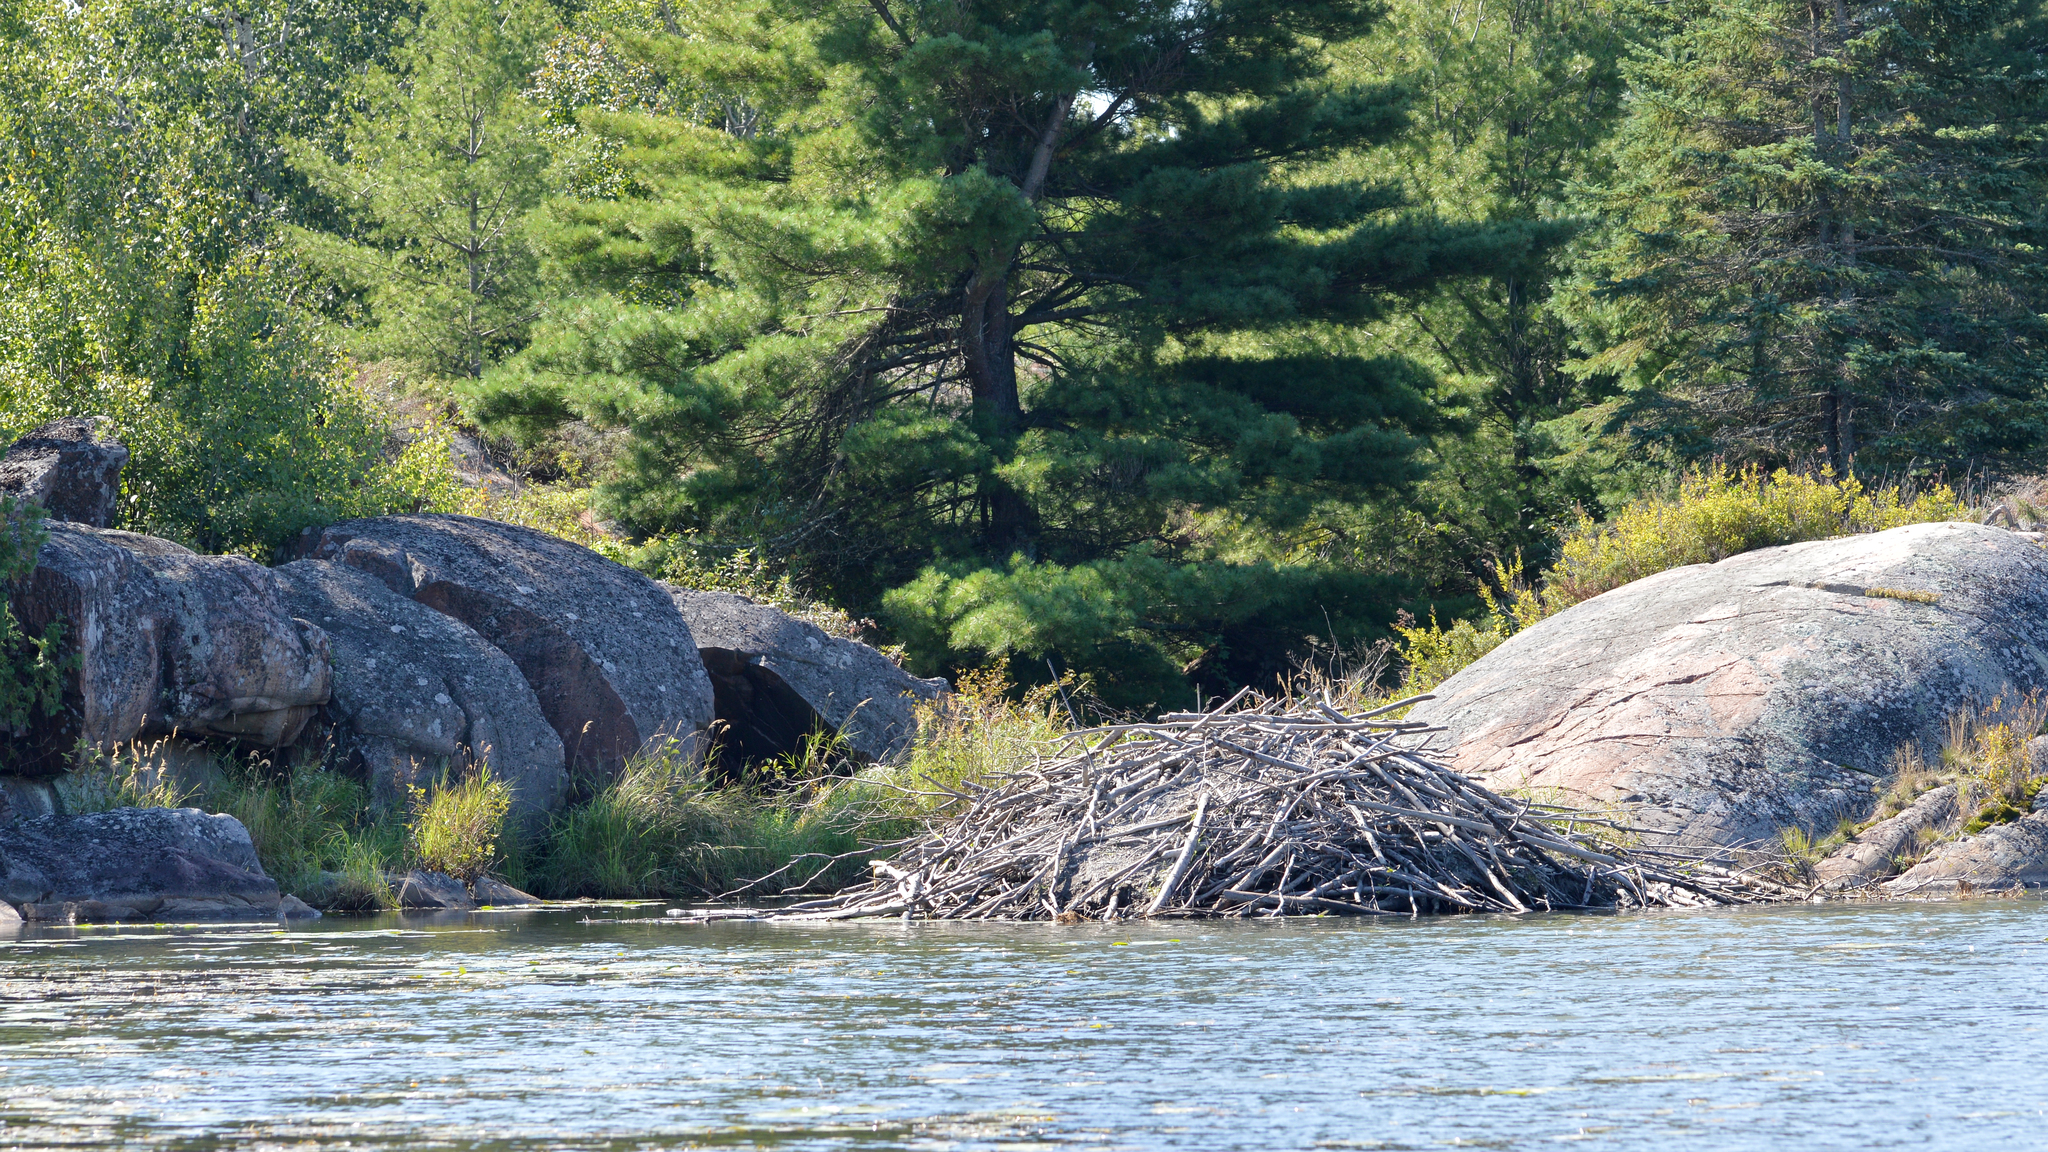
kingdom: Animalia
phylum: Chordata
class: Mammalia
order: Rodentia
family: Castoridae
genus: Castor
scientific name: Castor canadensis
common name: American beaver
